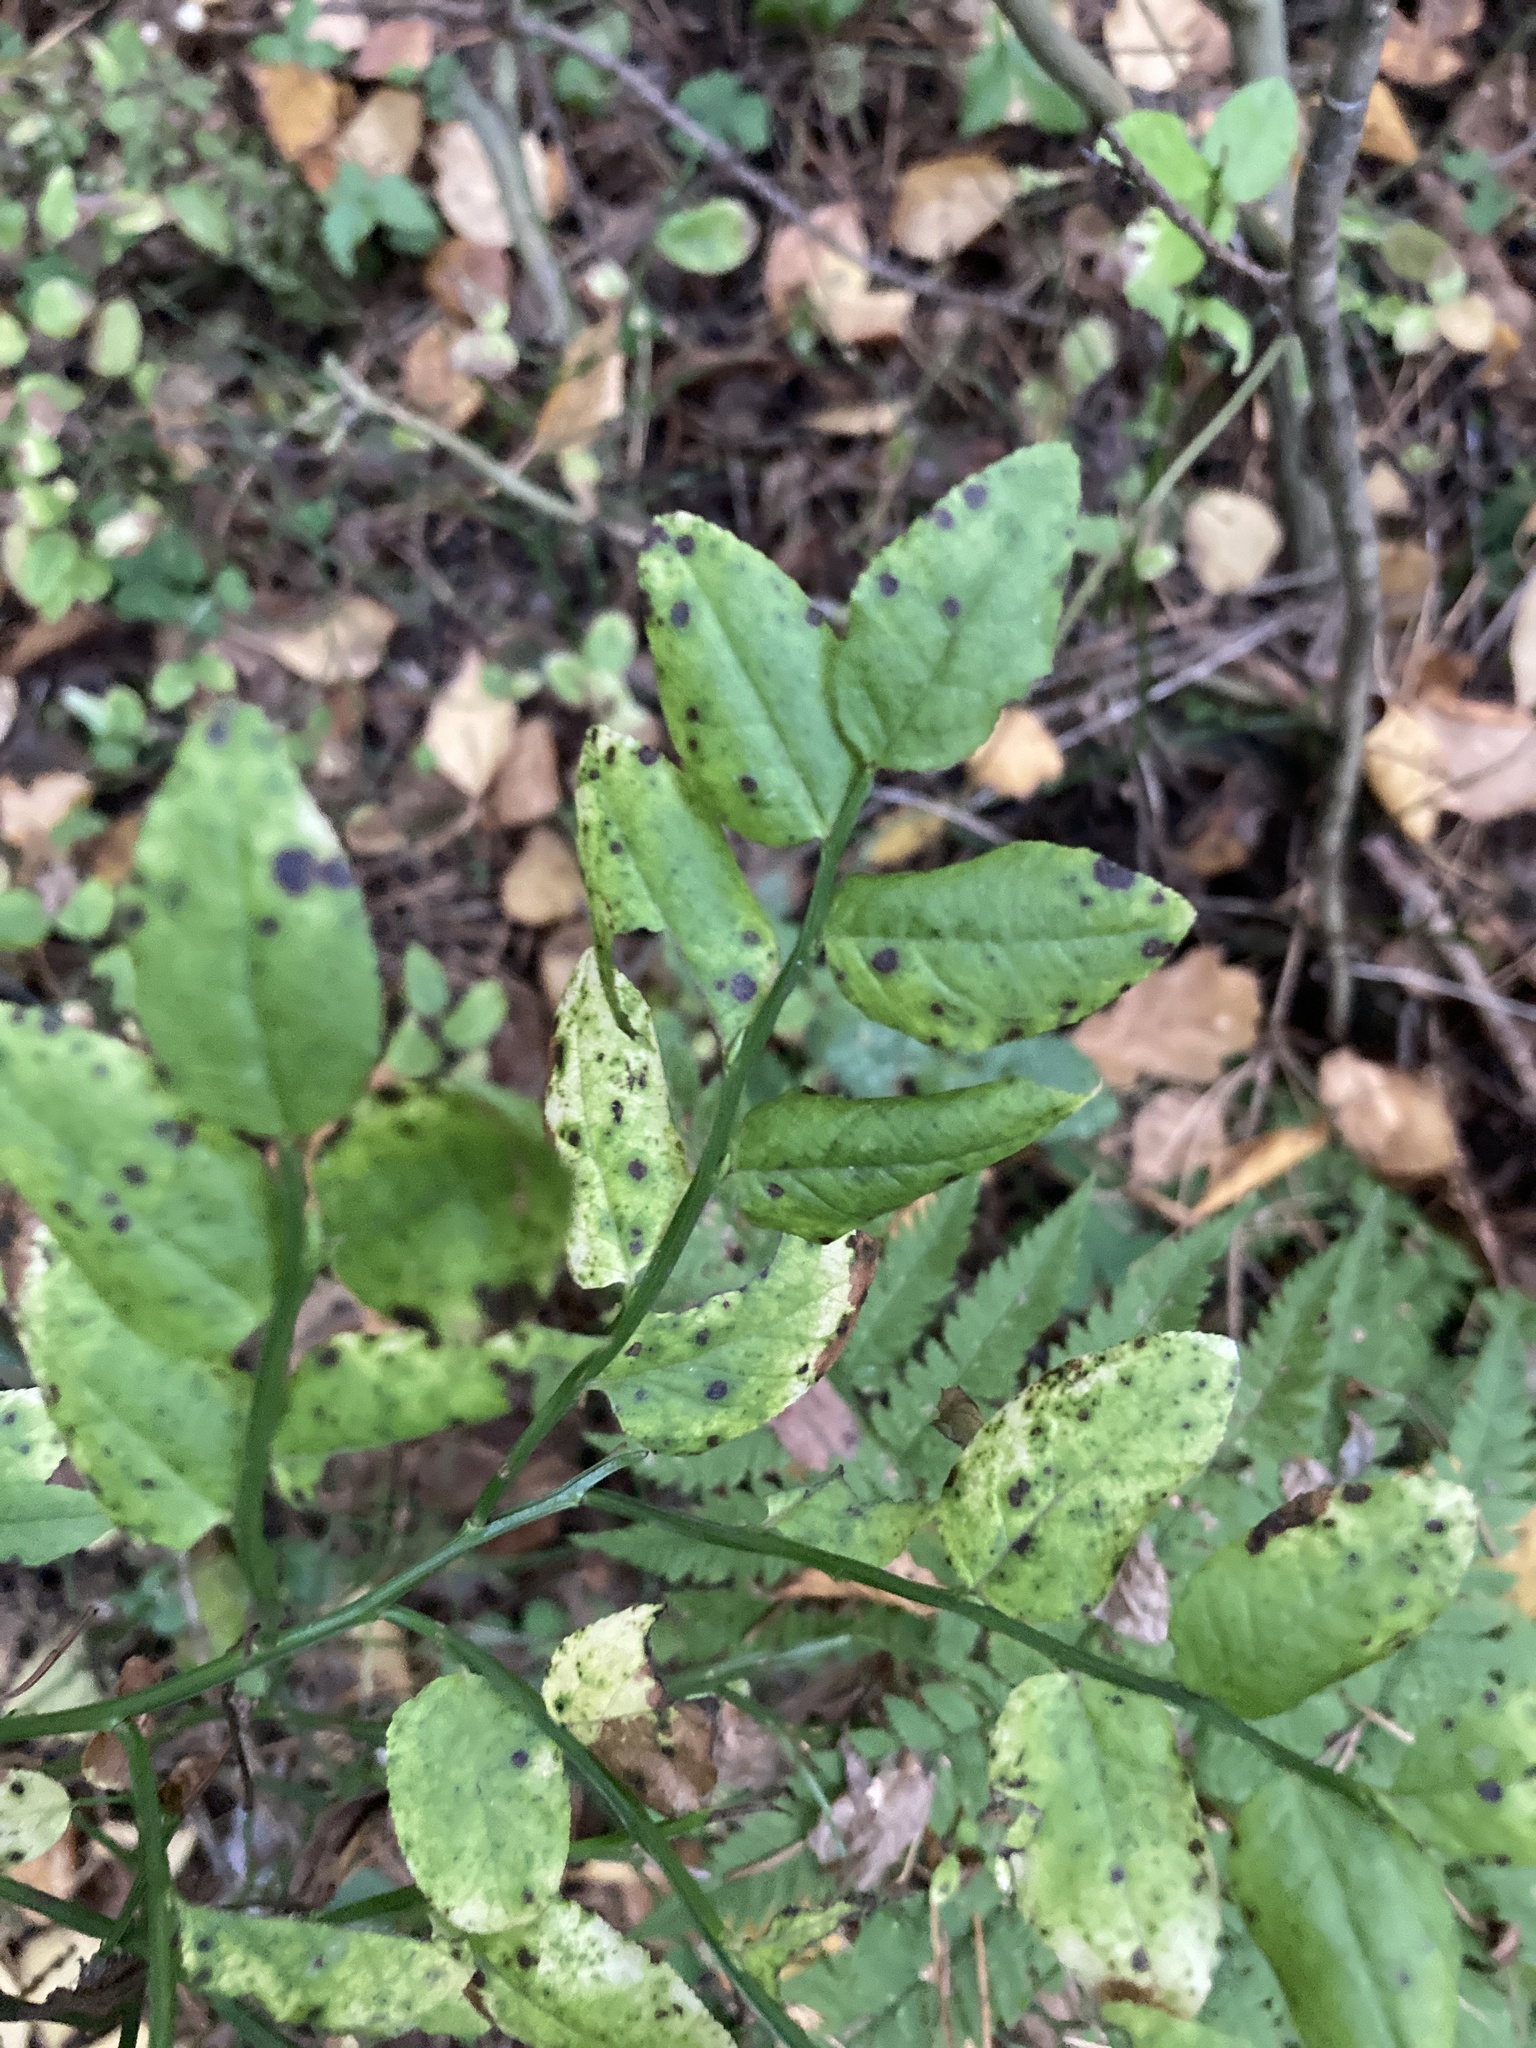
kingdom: Plantae
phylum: Tracheophyta
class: Magnoliopsida
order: Ericales
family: Ericaceae
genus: Vaccinium
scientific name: Vaccinium myrtillus
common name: Bilberry
